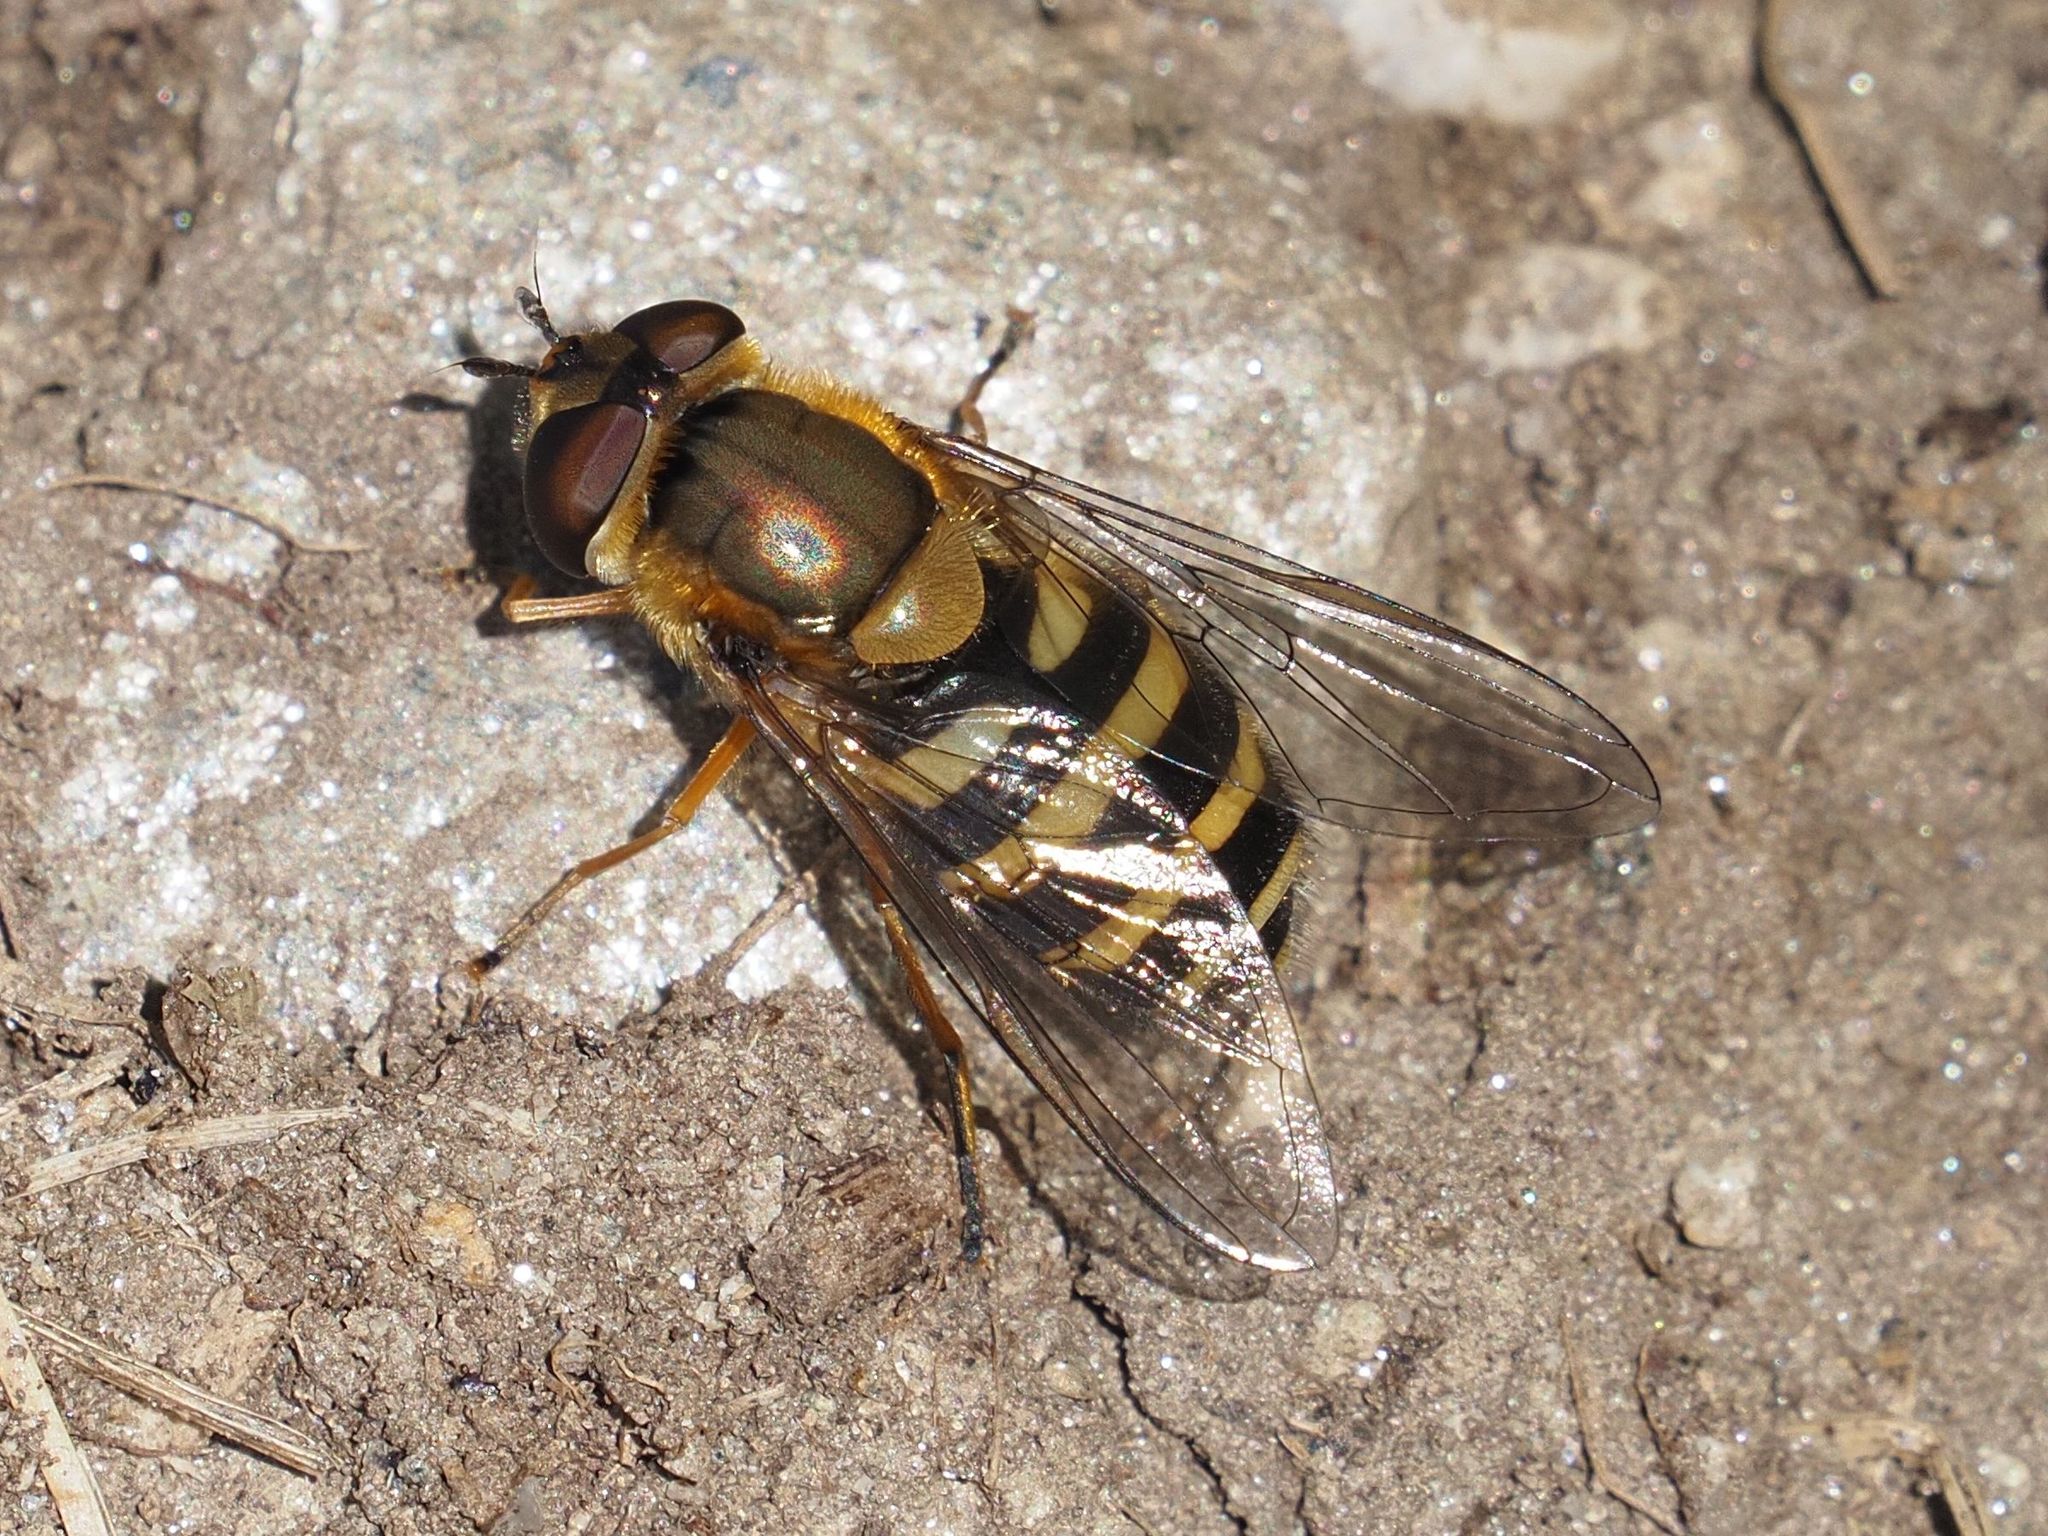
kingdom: Animalia
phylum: Arthropoda
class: Insecta
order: Diptera
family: Syrphidae
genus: Syrphus
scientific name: Syrphus
